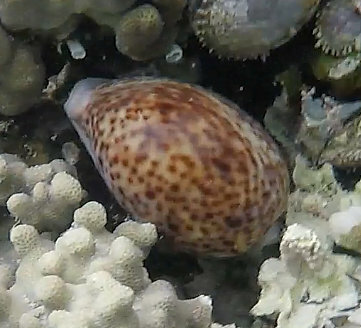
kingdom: Animalia
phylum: Mollusca
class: Gastropoda
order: Littorinimorpha
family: Cypraeidae
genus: Cypraea
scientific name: Cypraea pantherina
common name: Panther cowrie
